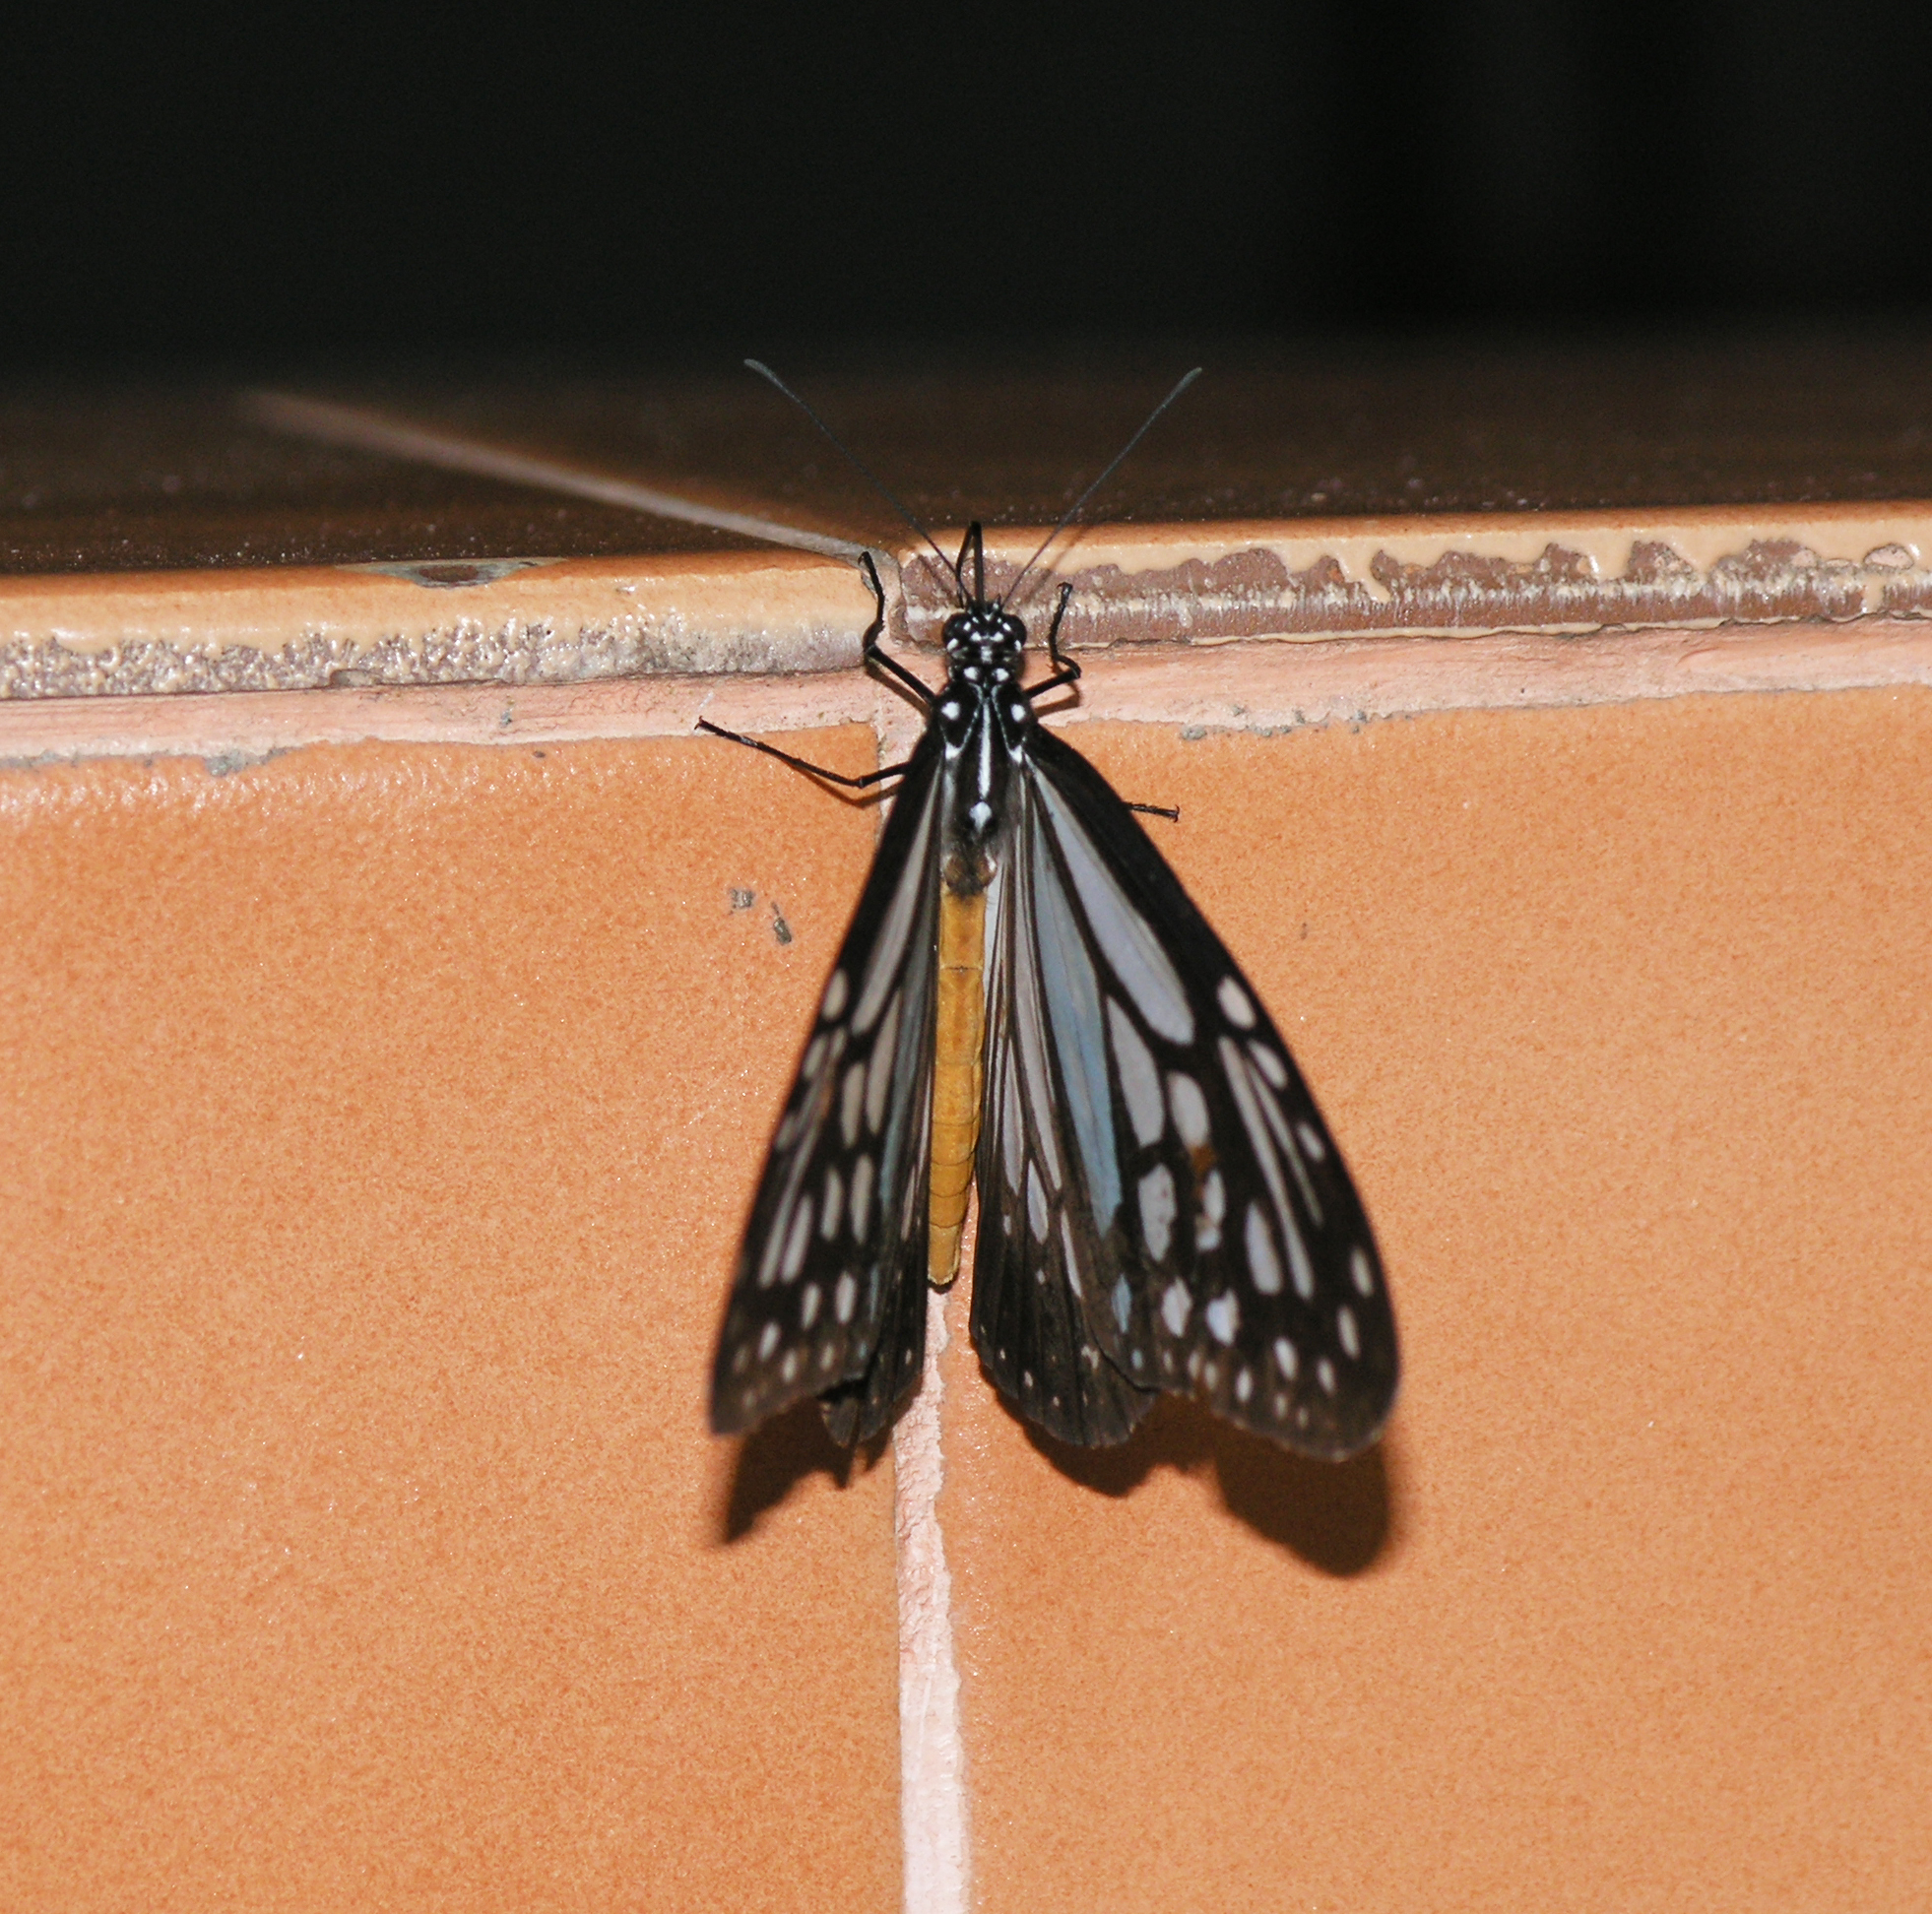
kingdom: Animalia
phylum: Arthropoda
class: Insecta
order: Lepidoptera
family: Nymphalidae
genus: Parantica
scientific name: Parantica melaneus
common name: Chocolate tiger
